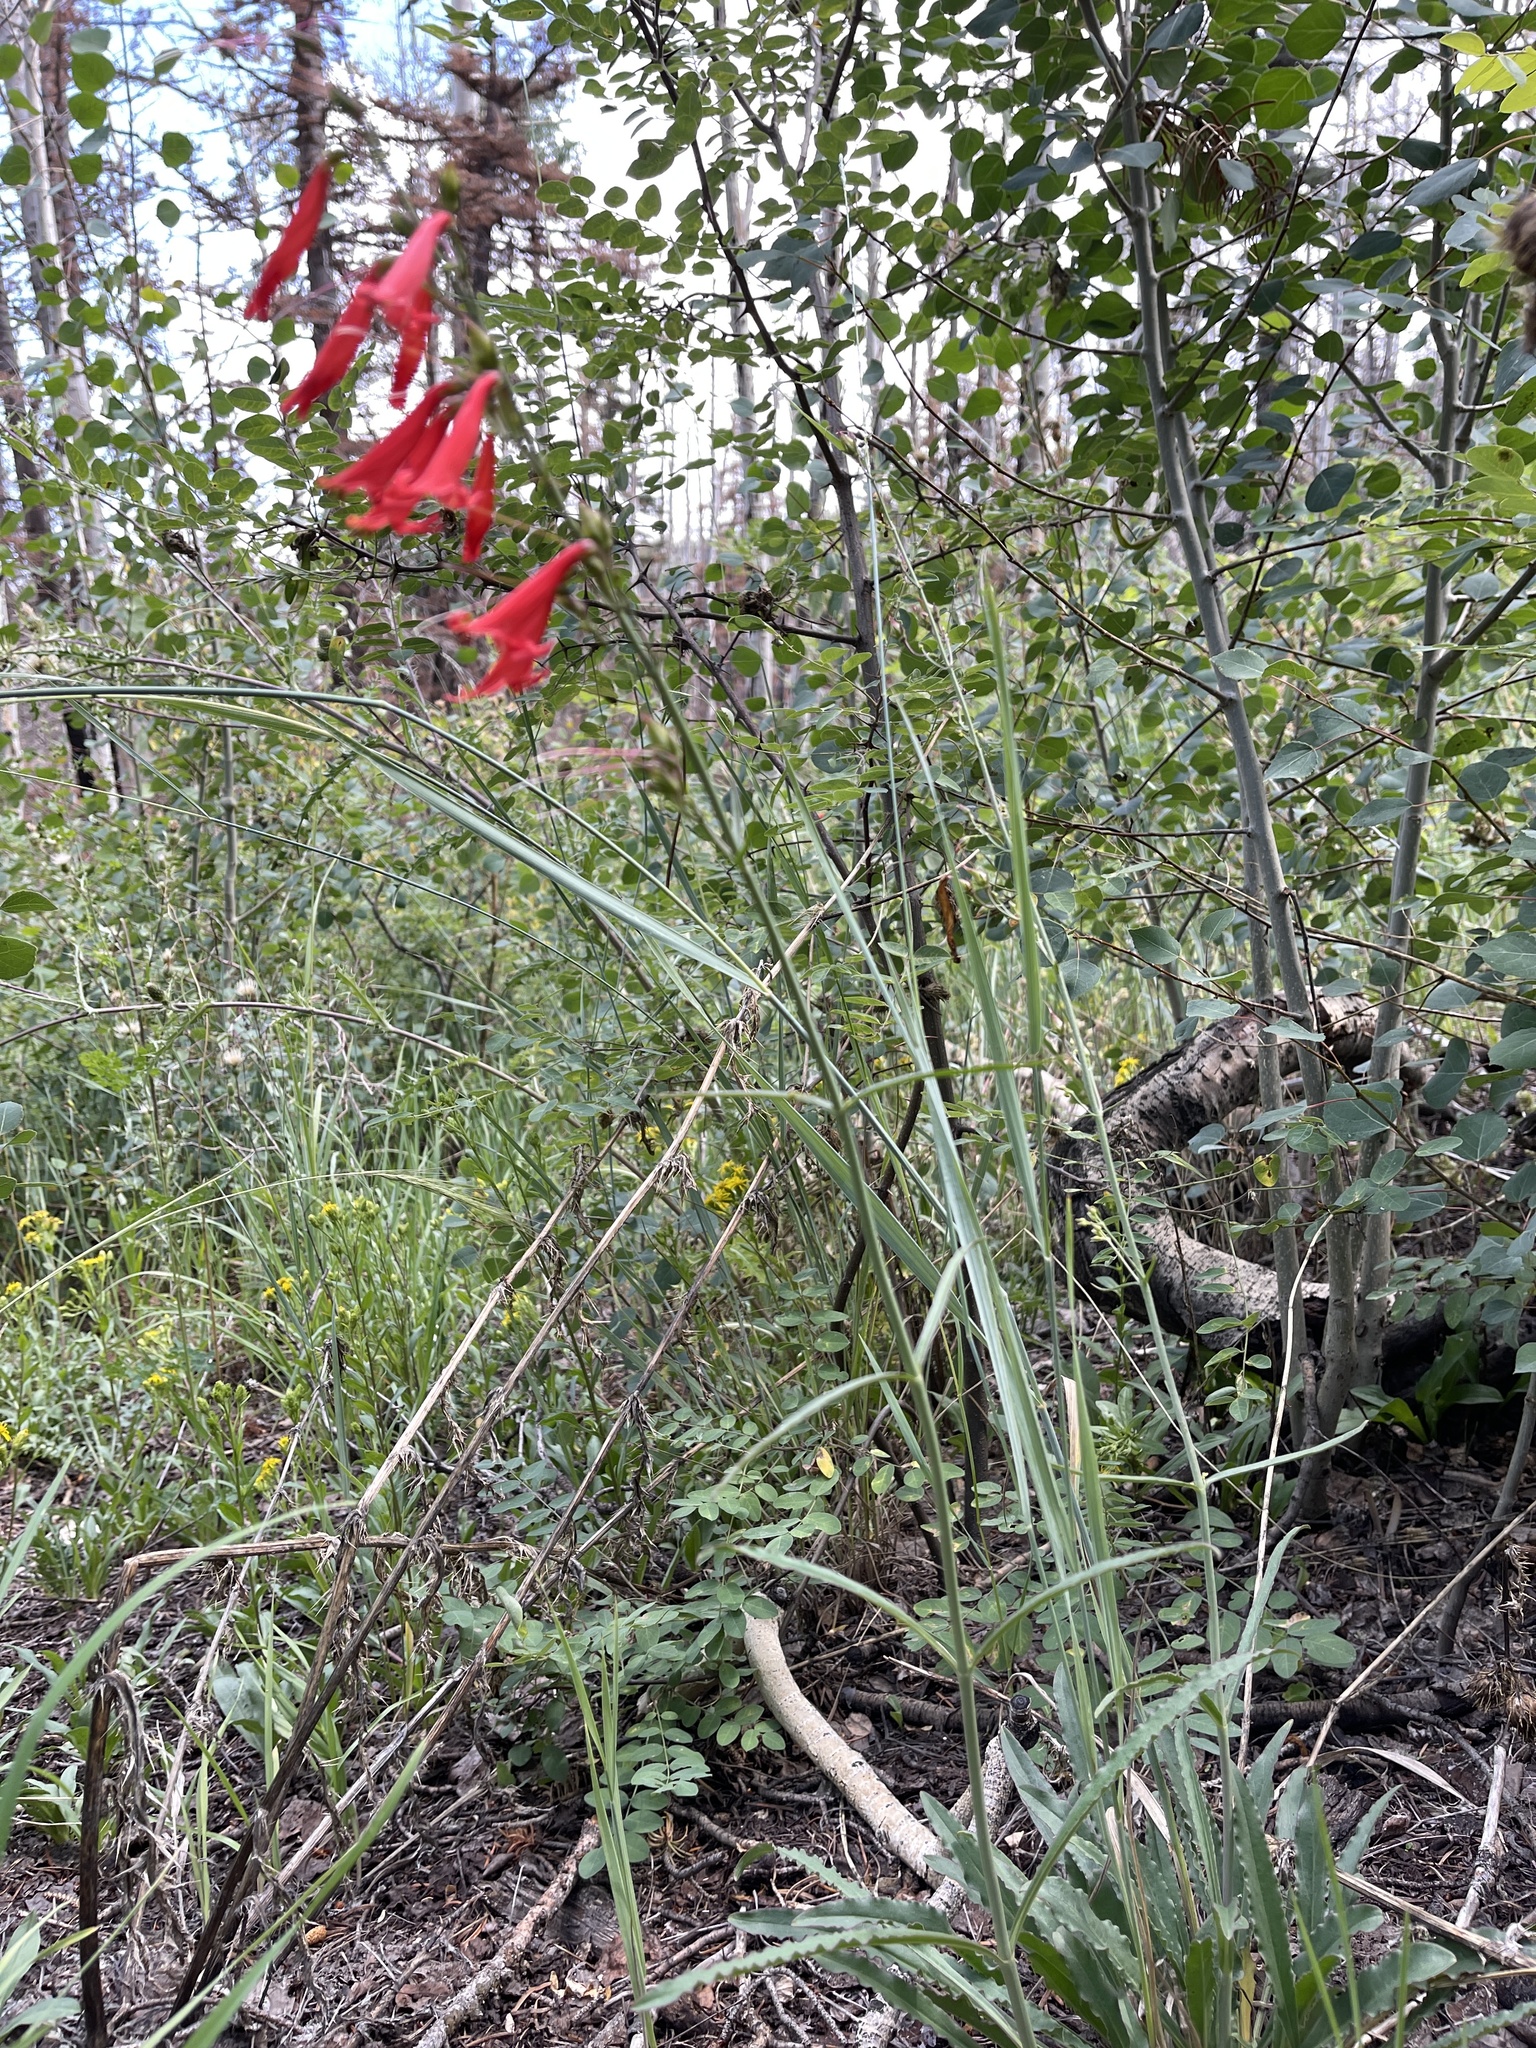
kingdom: Plantae
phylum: Tracheophyta
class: Magnoliopsida
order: Lamiales
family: Plantaginaceae
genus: Penstemon
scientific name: Penstemon barbatus
